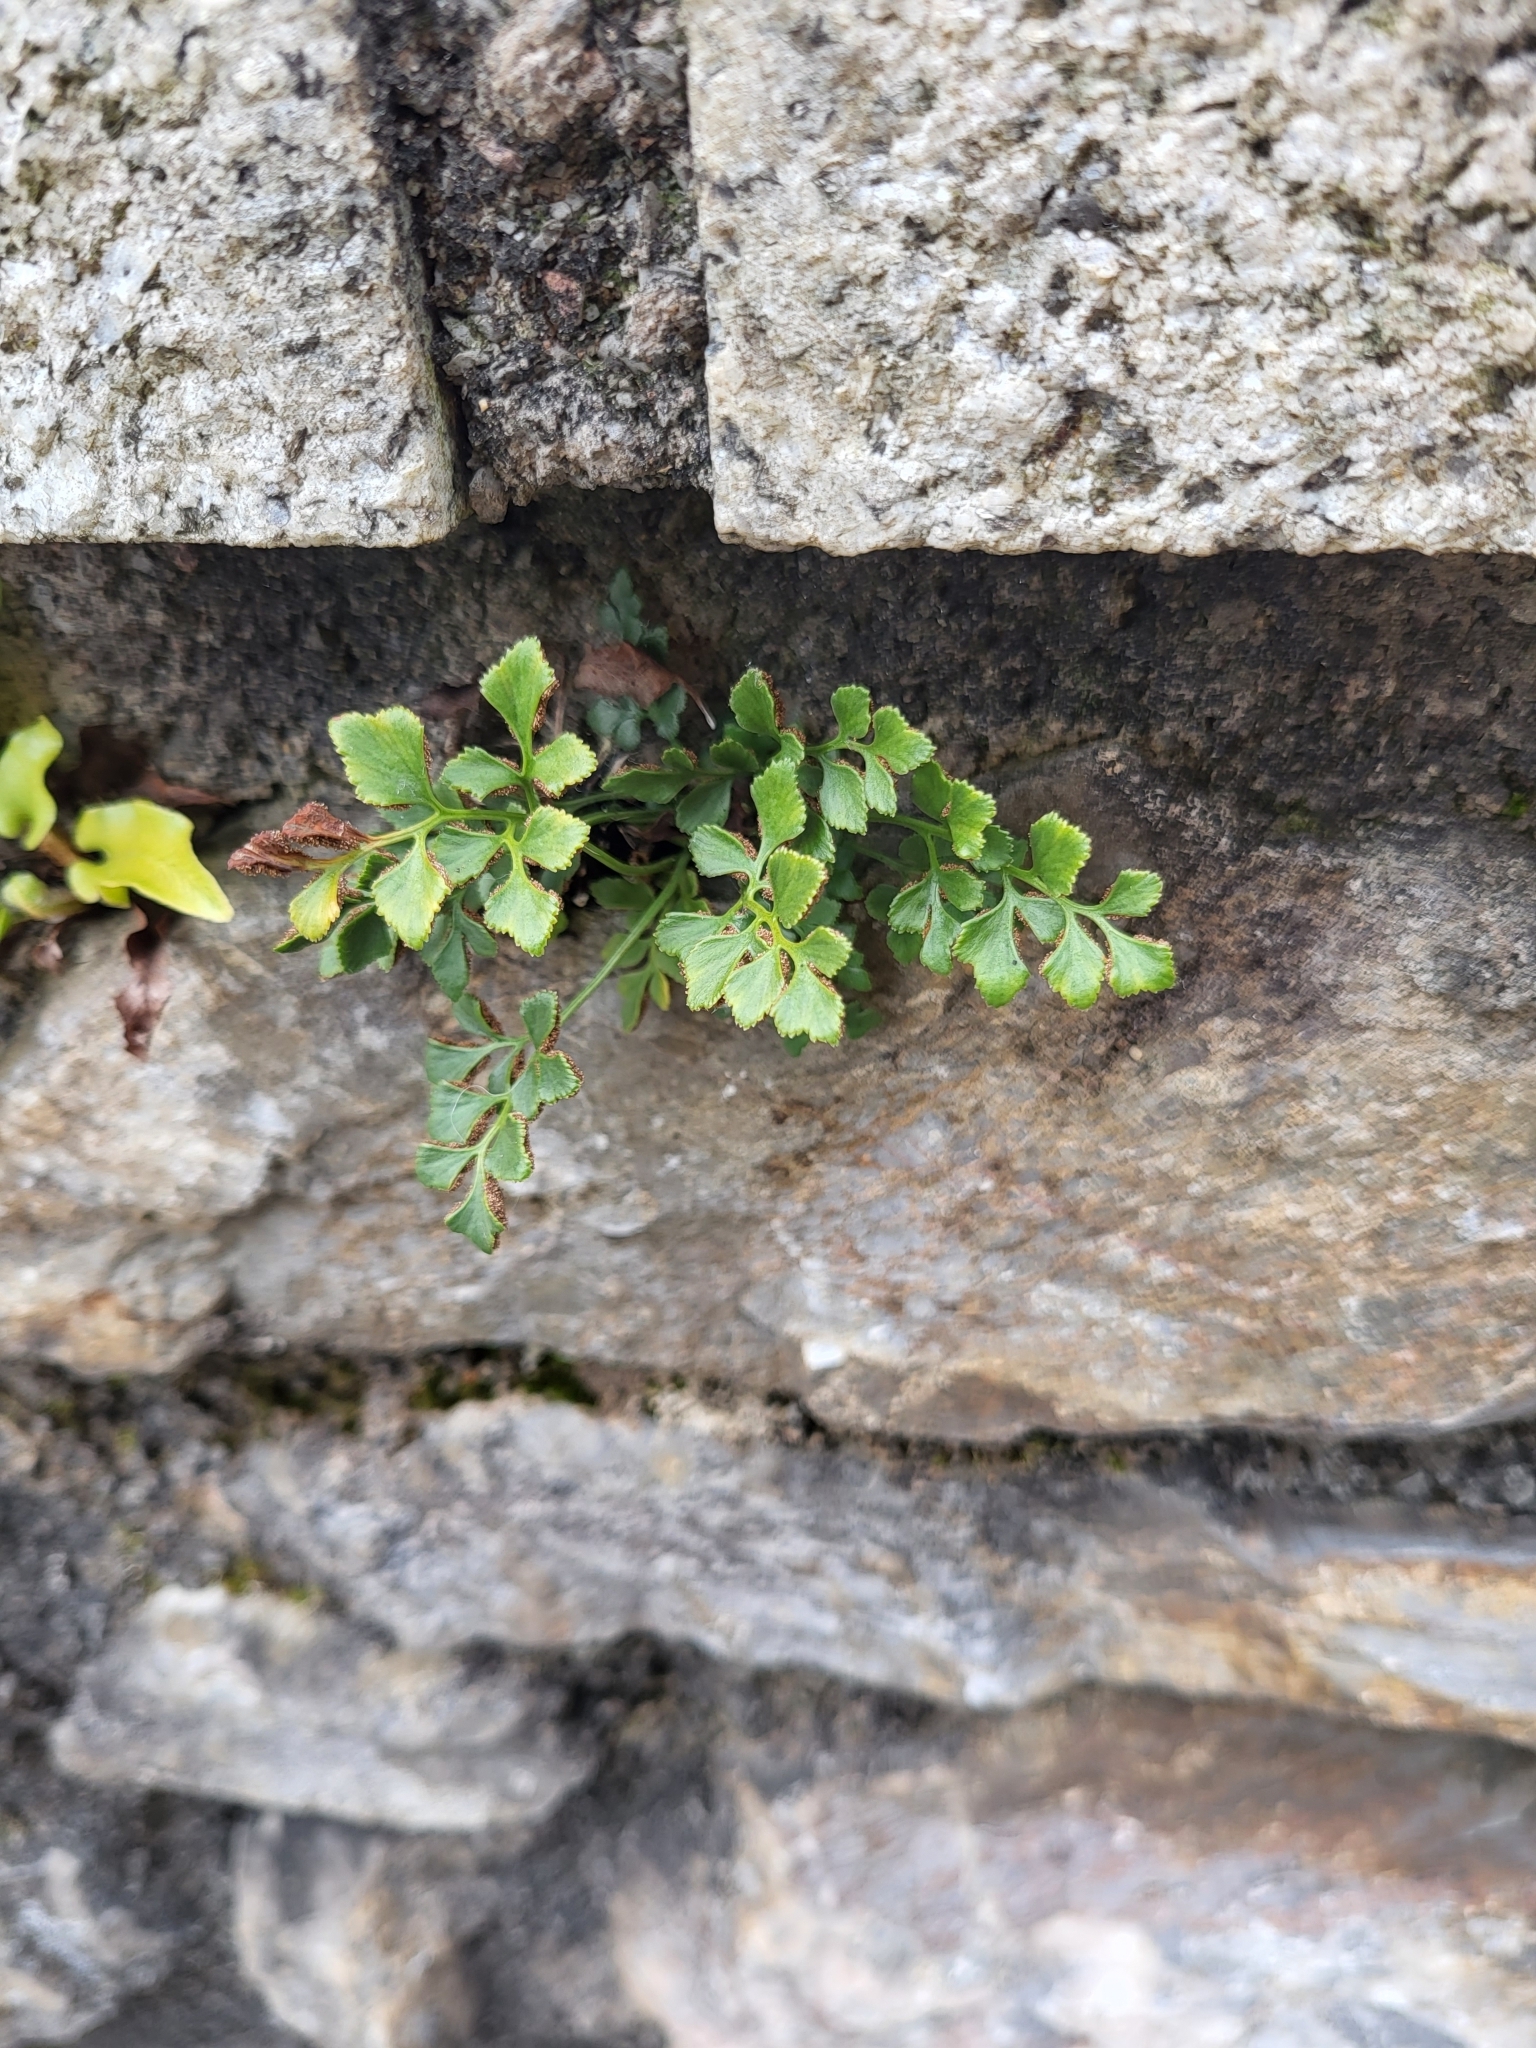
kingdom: Plantae
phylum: Tracheophyta
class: Polypodiopsida
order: Polypodiales
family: Aspleniaceae
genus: Asplenium
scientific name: Asplenium ruta-muraria
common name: Wall-rue
